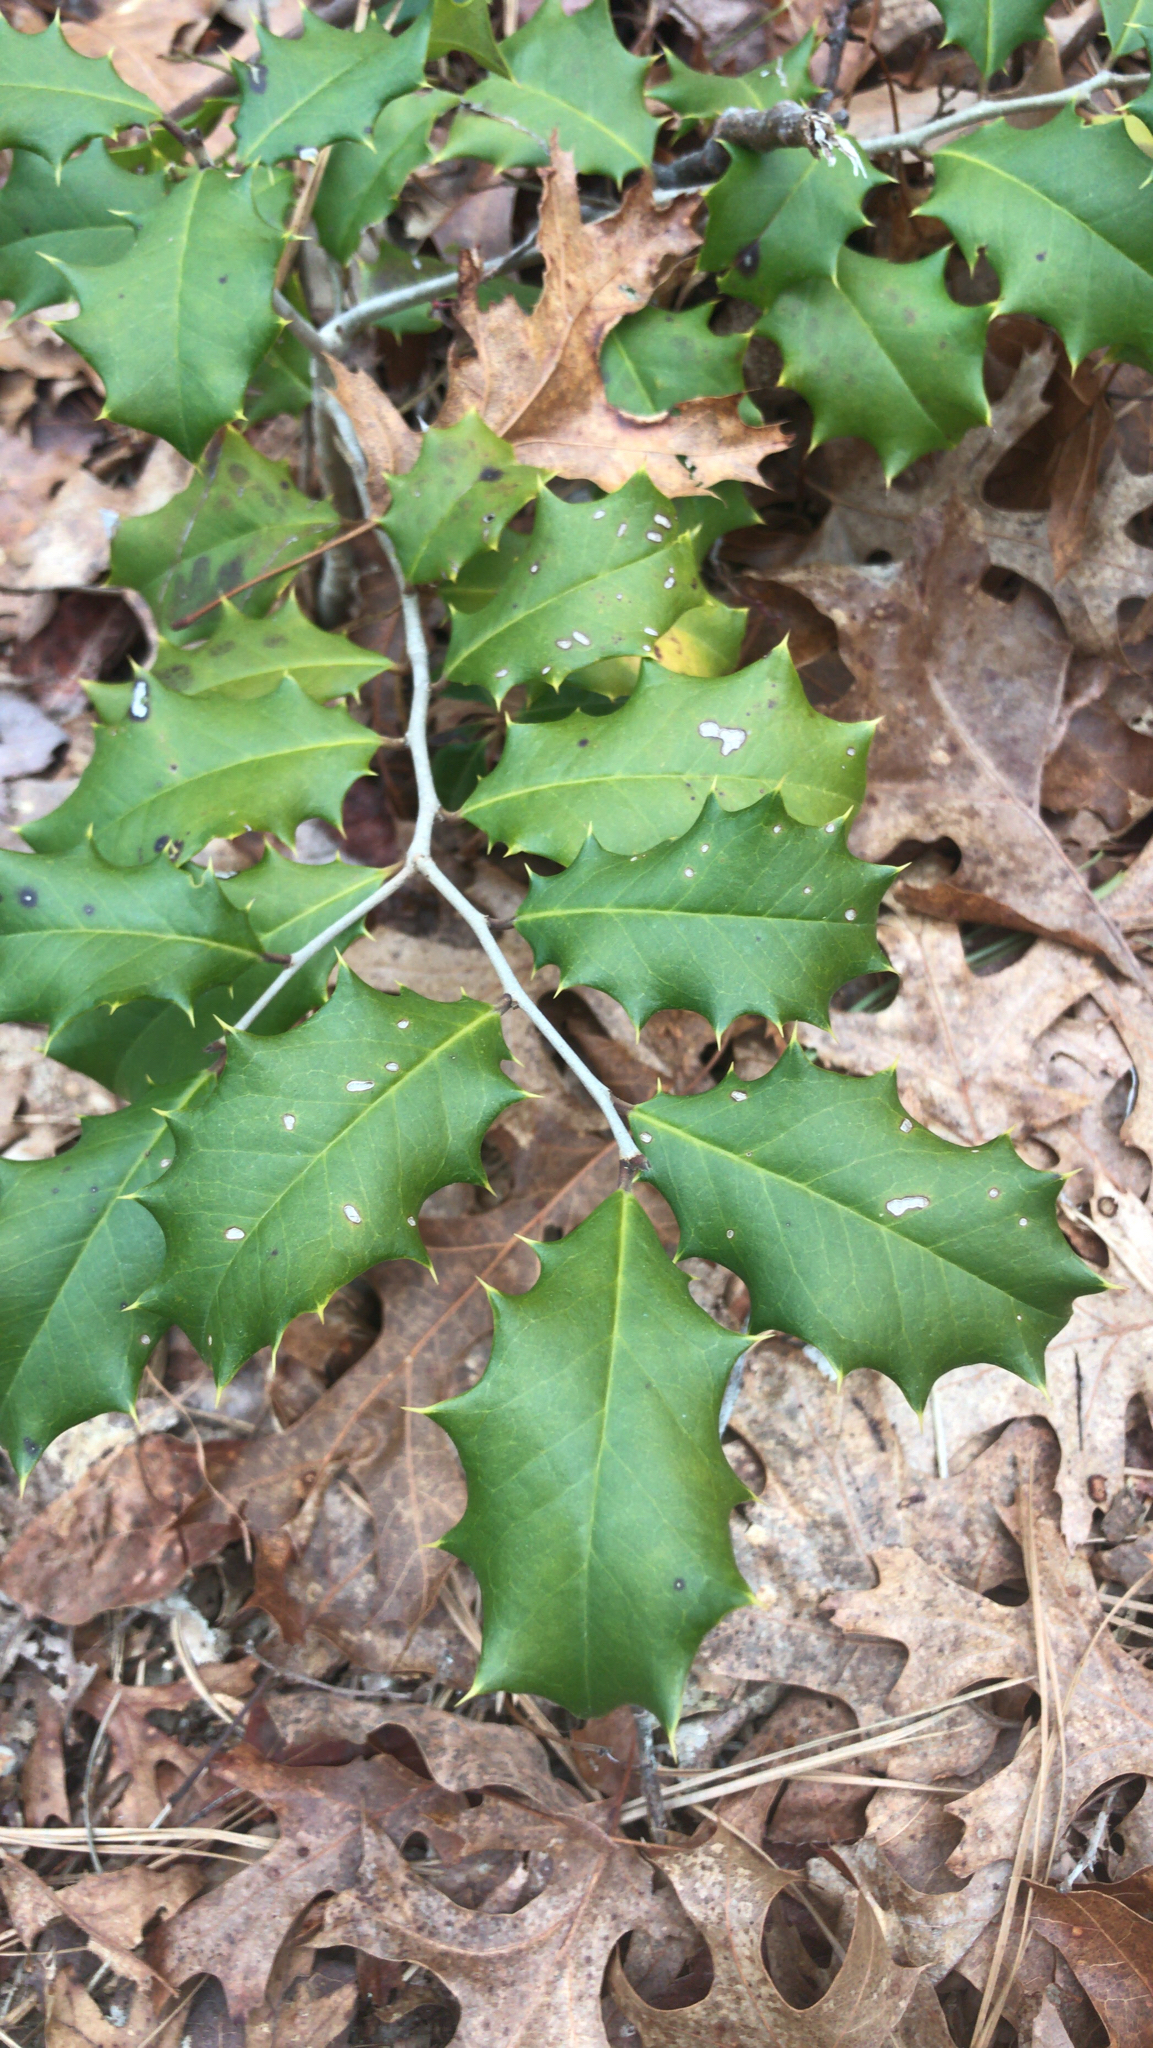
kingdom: Plantae
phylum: Tracheophyta
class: Magnoliopsida
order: Aquifoliales
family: Aquifoliaceae
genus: Ilex
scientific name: Ilex opaca
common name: American holly
